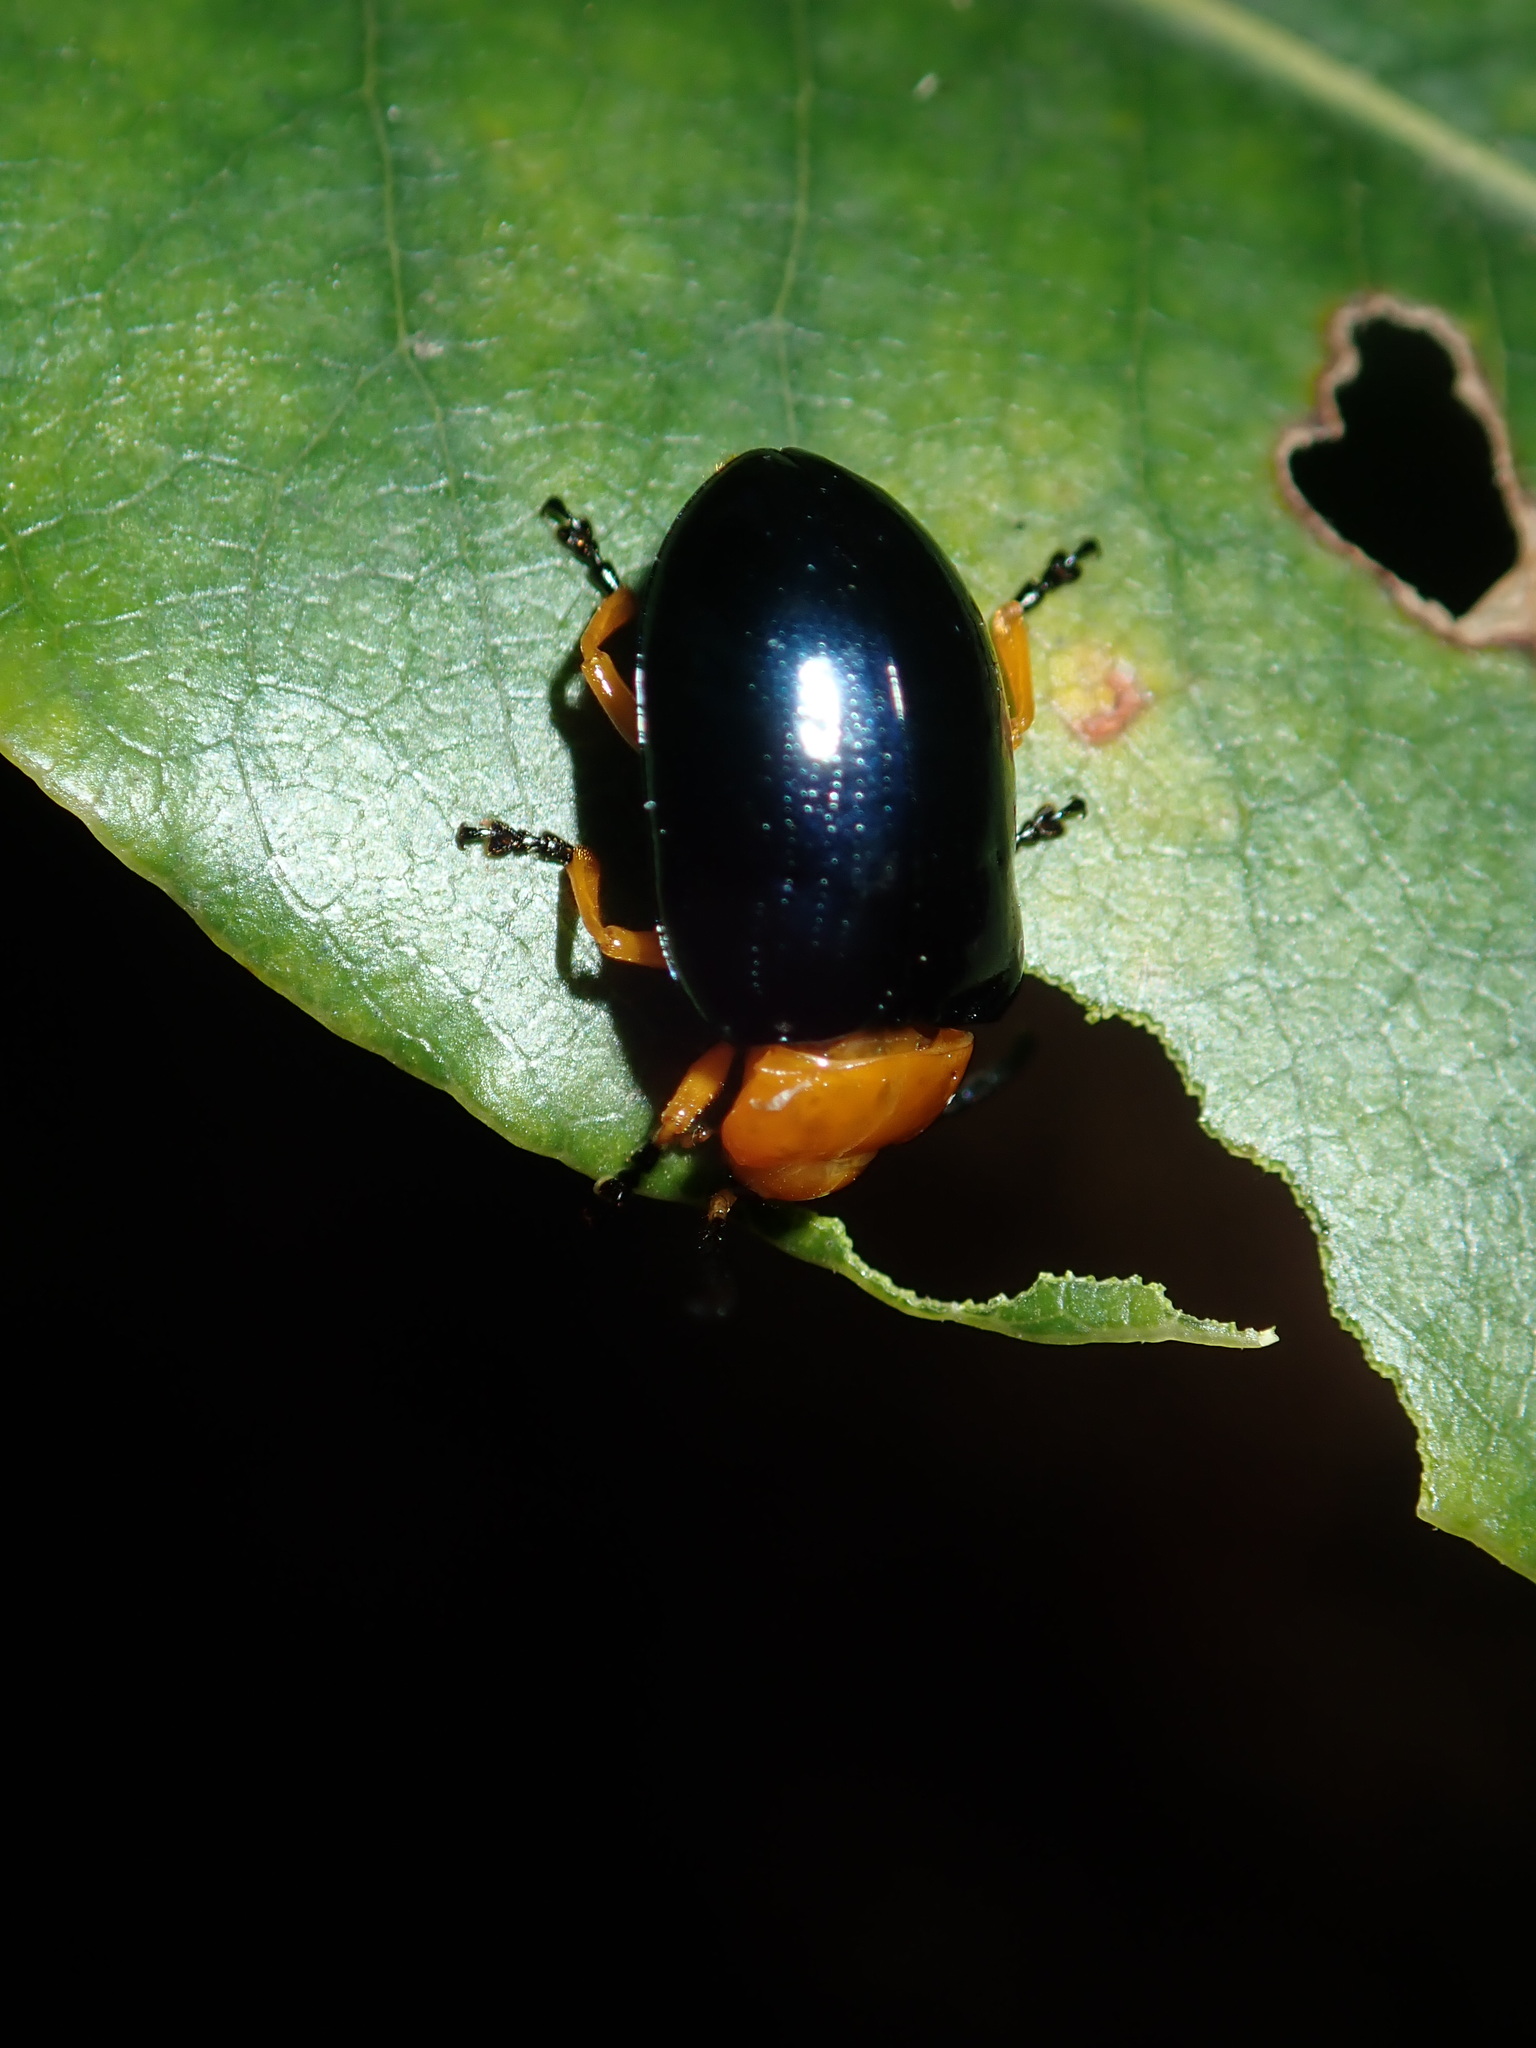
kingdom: Animalia
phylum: Arthropoda
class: Insecta
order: Coleoptera
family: Chrysomelidae
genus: Lamprolina
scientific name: Lamprolina
